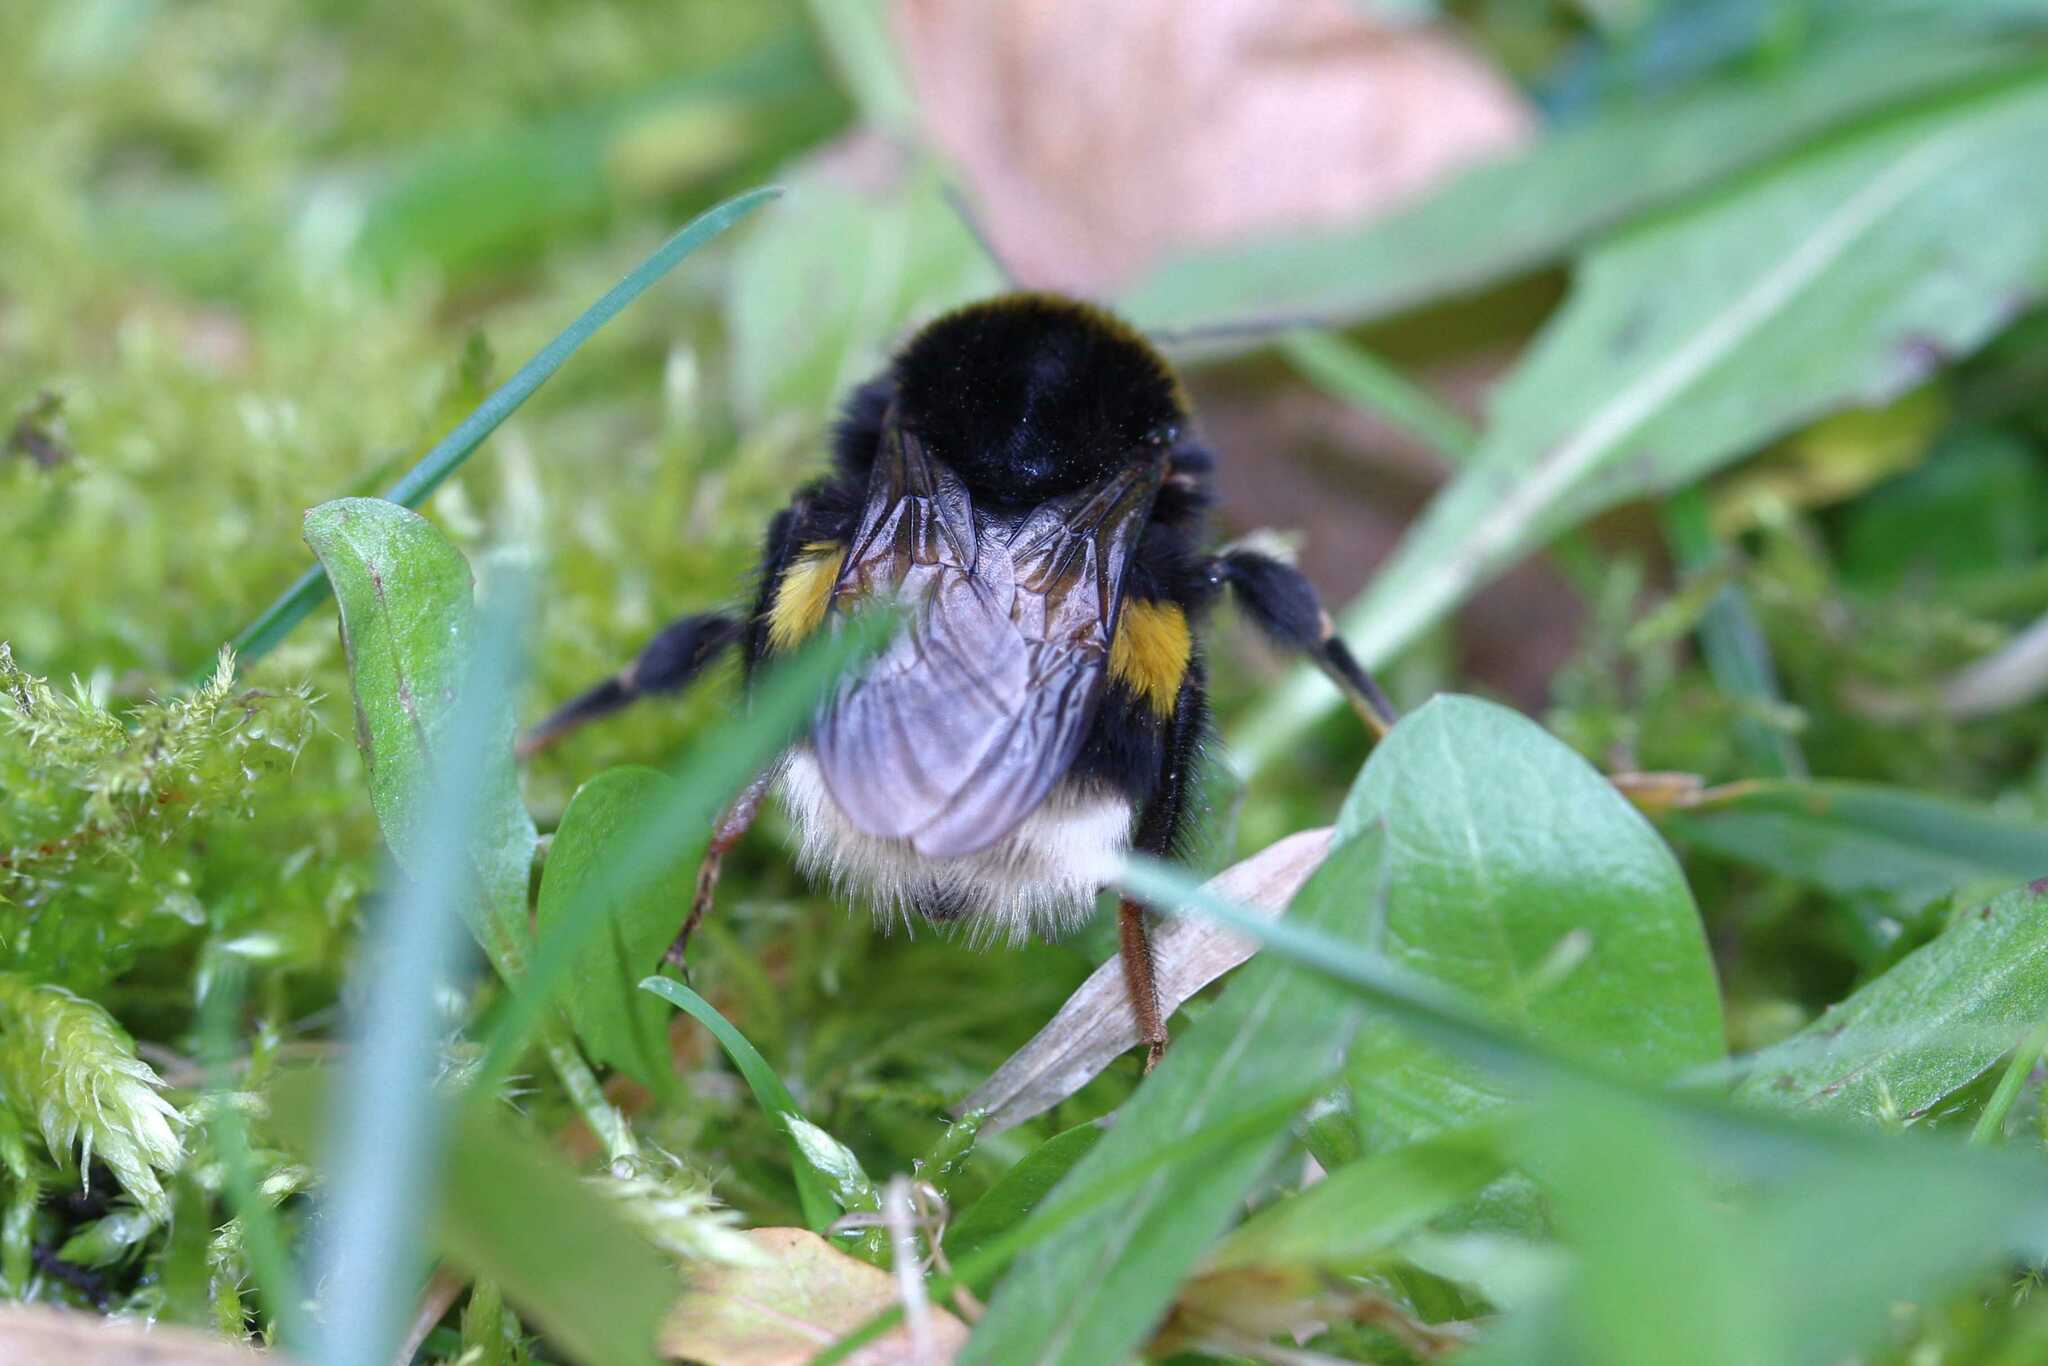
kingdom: Animalia
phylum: Arthropoda
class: Insecta
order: Hymenoptera
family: Apidae
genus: Bombus
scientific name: Bombus
